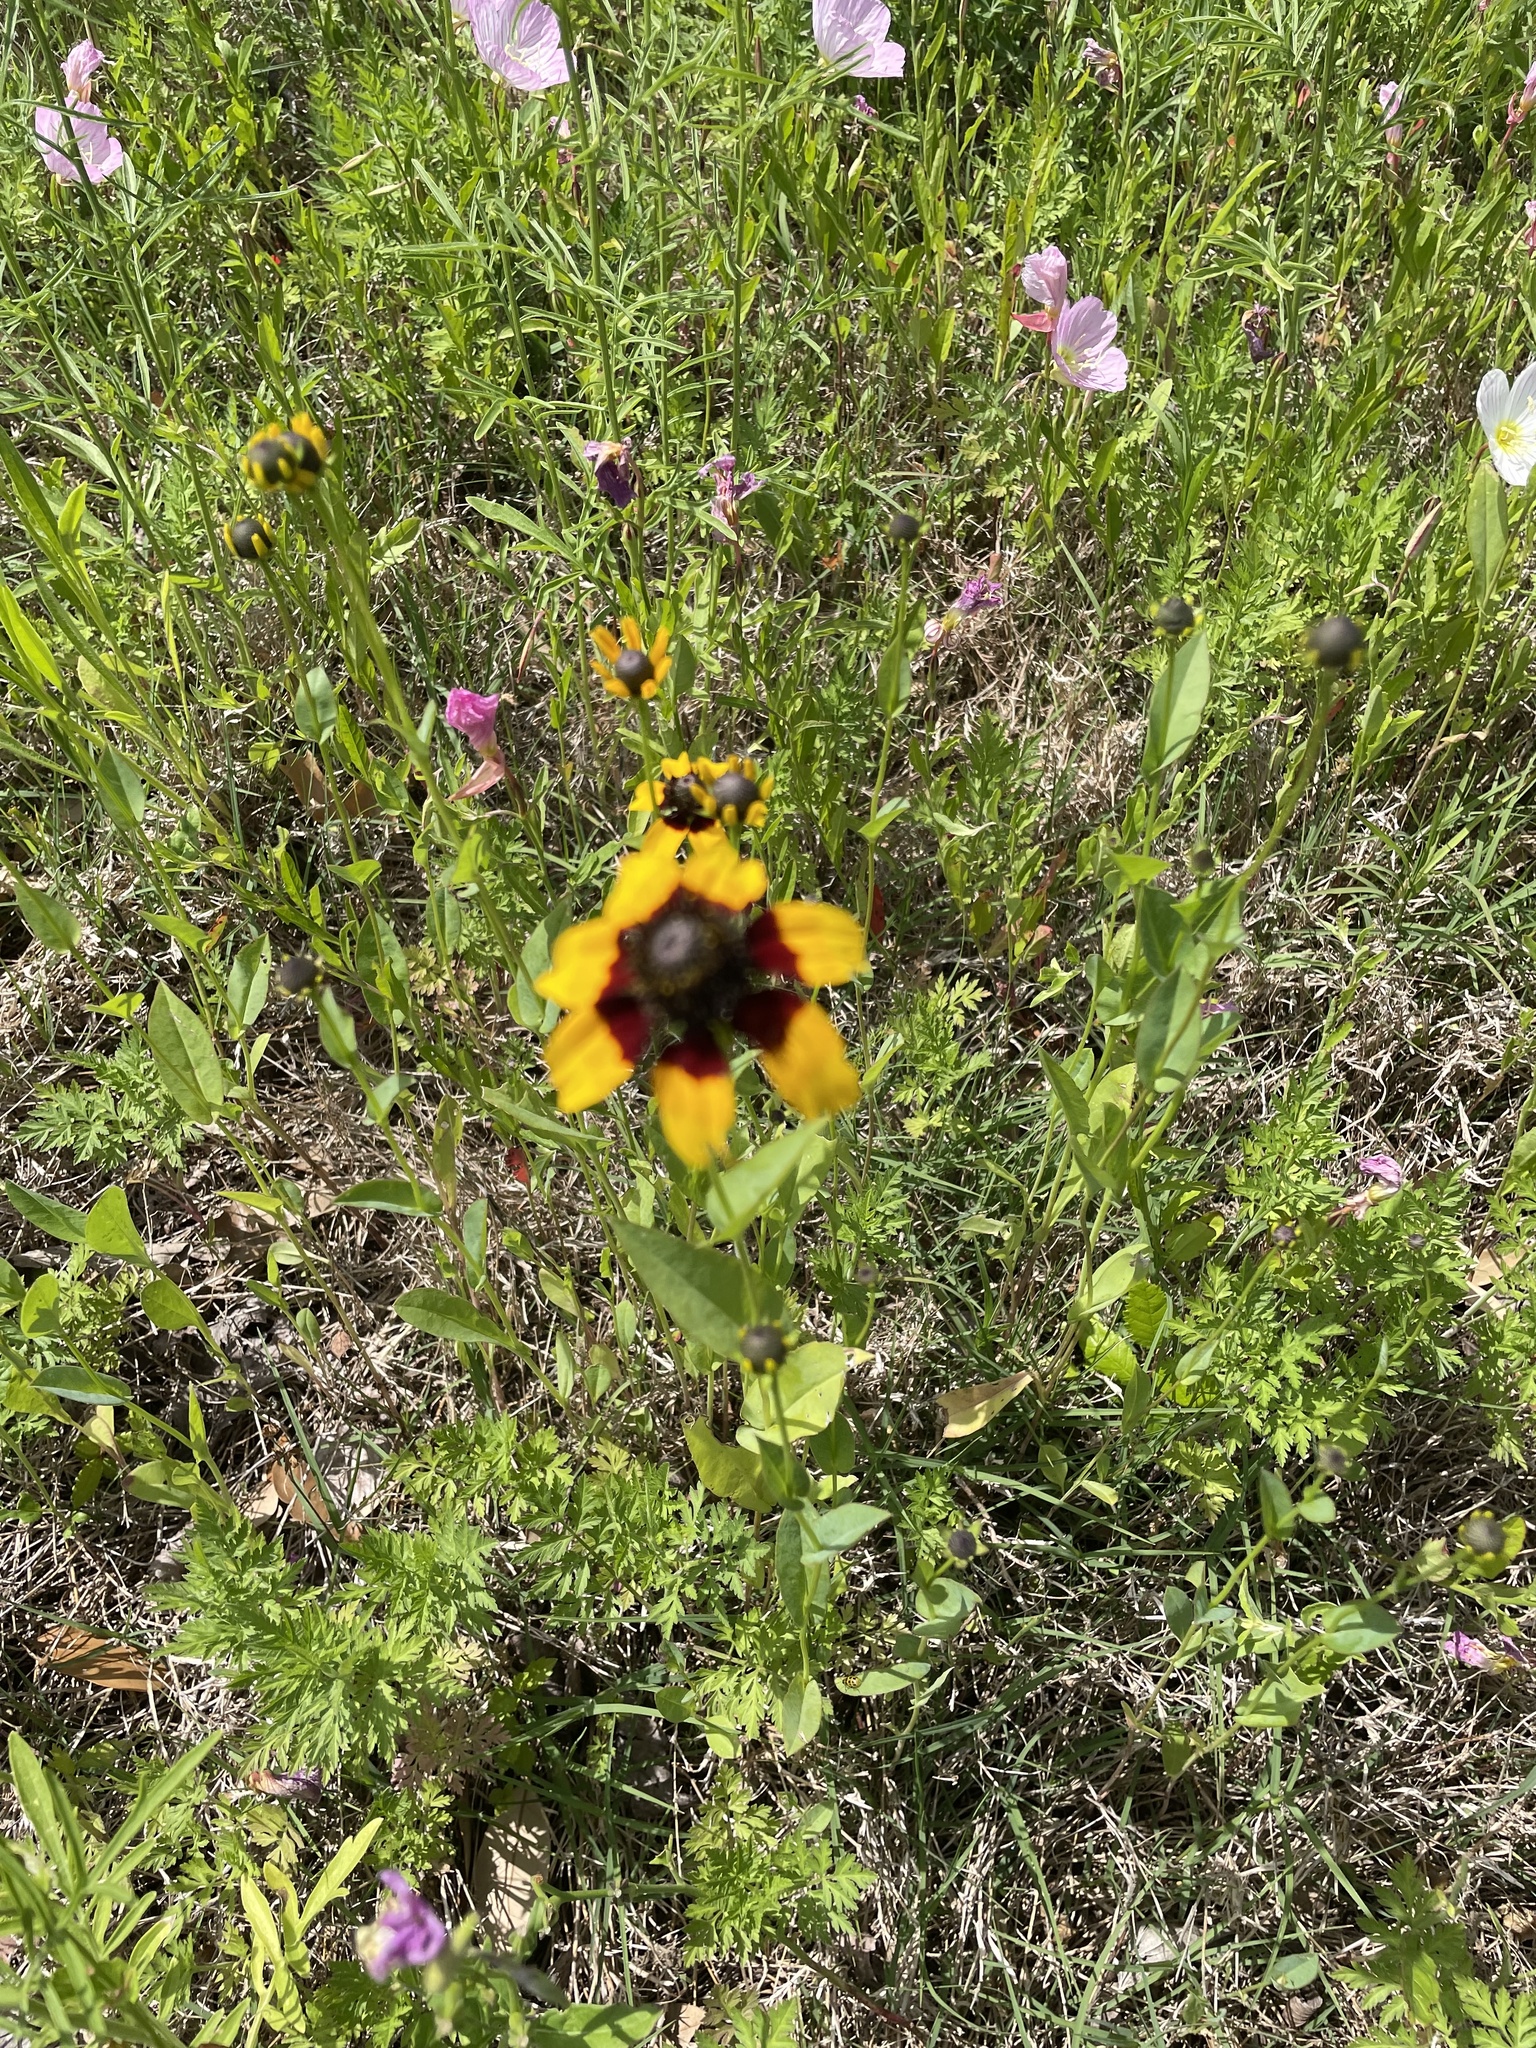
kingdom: Plantae
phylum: Tracheophyta
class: Magnoliopsida
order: Asterales
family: Asteraceae
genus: Rudbeckia
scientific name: Rudbeckia amplexicaulis
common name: Clasping-leaf coneflower
